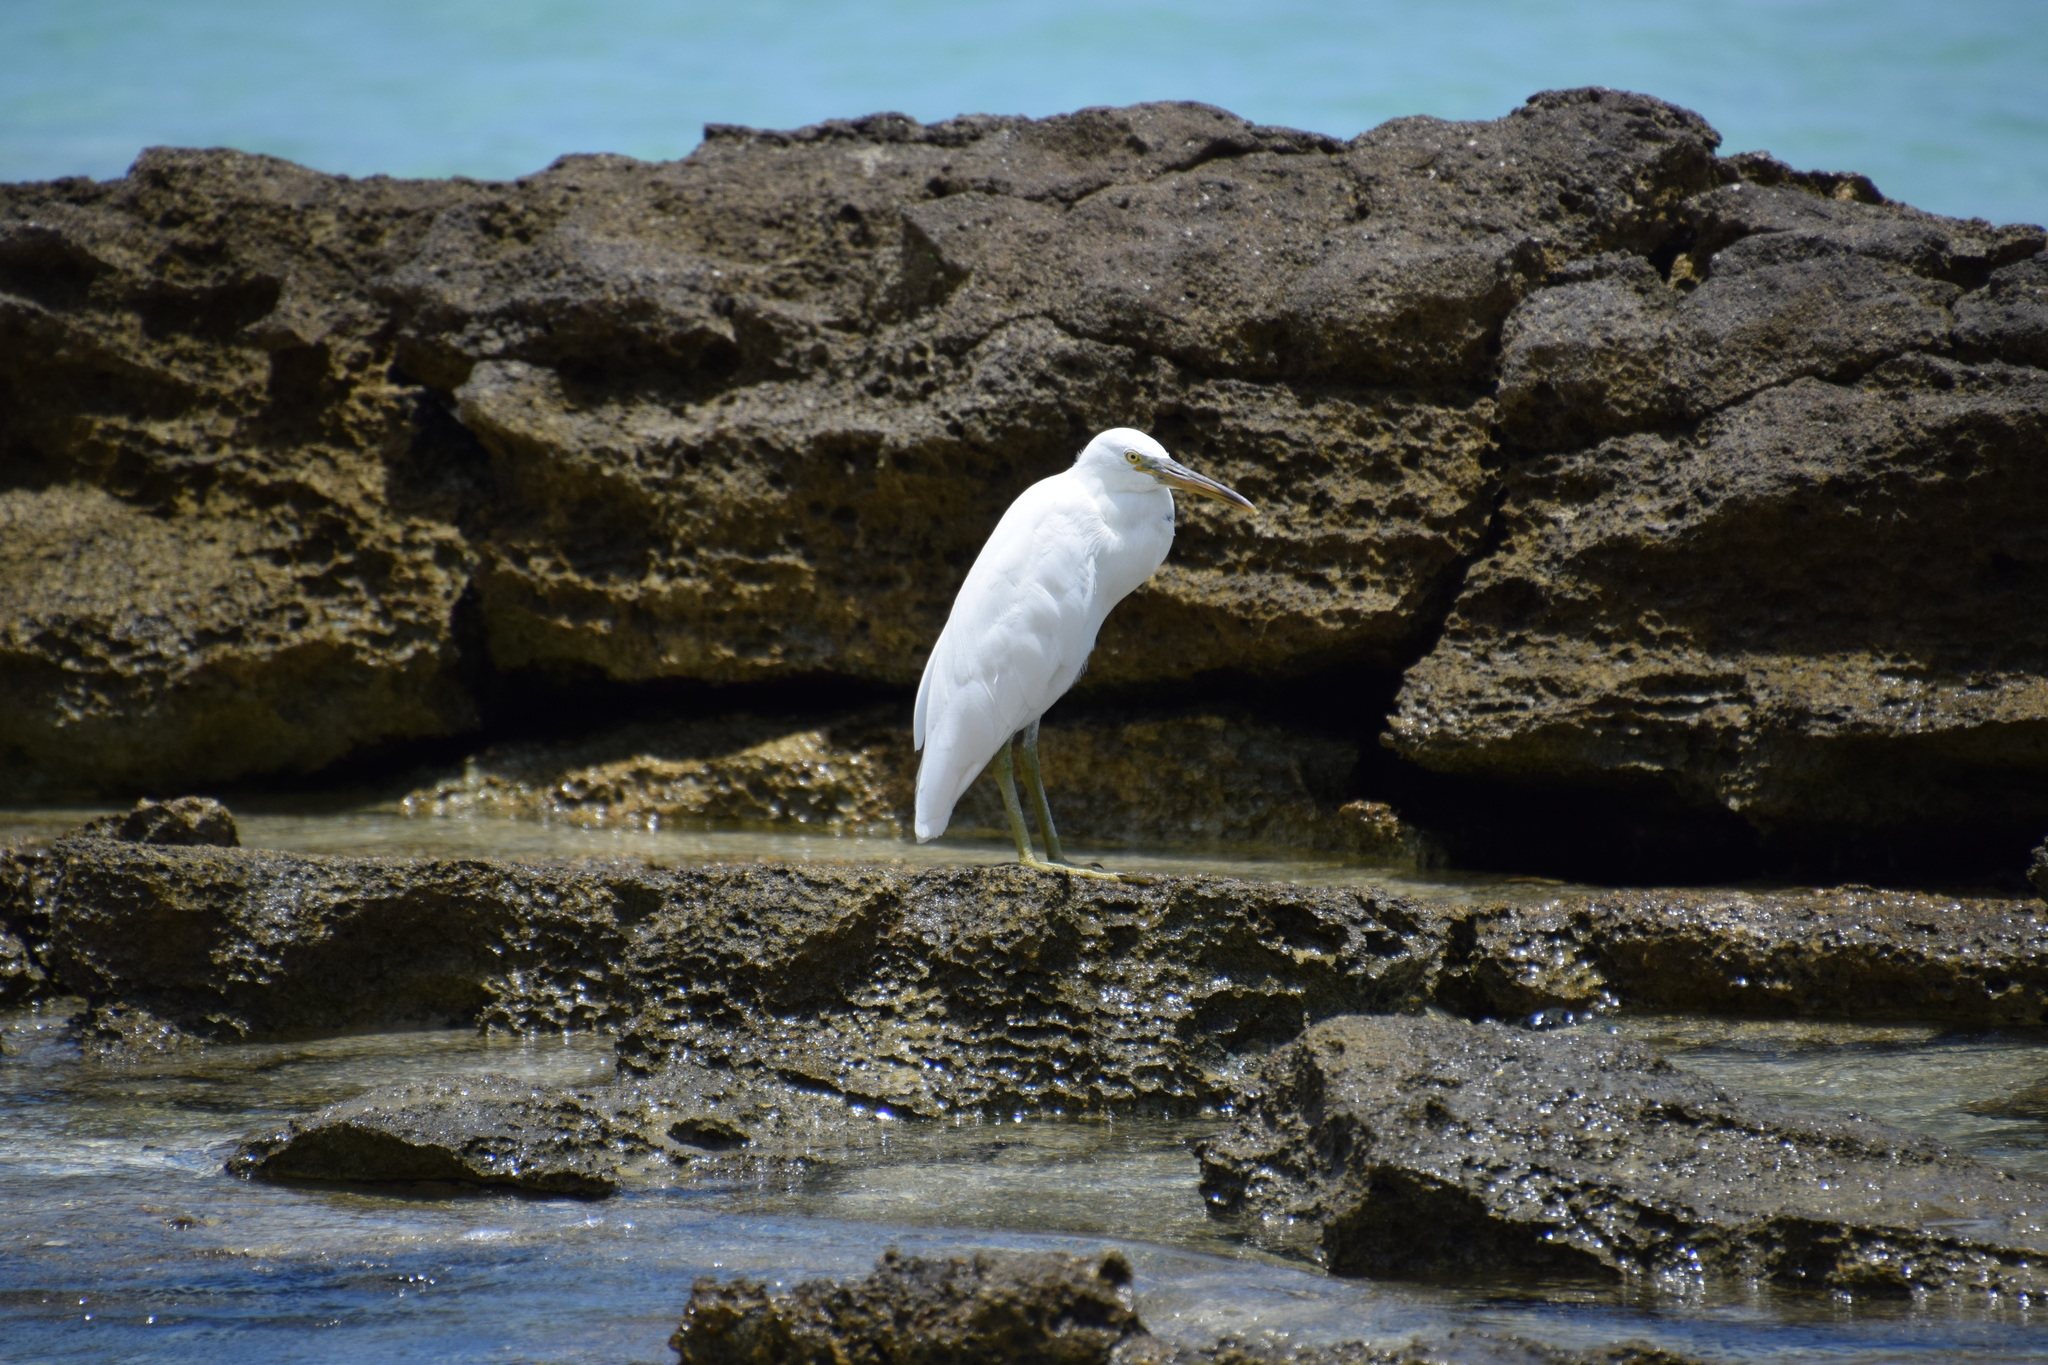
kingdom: Animalia
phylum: Chordata
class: Aves
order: Pelecaniformes
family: Ardeidae
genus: Egretta
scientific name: Egretta sacra
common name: Pacific reef heron
